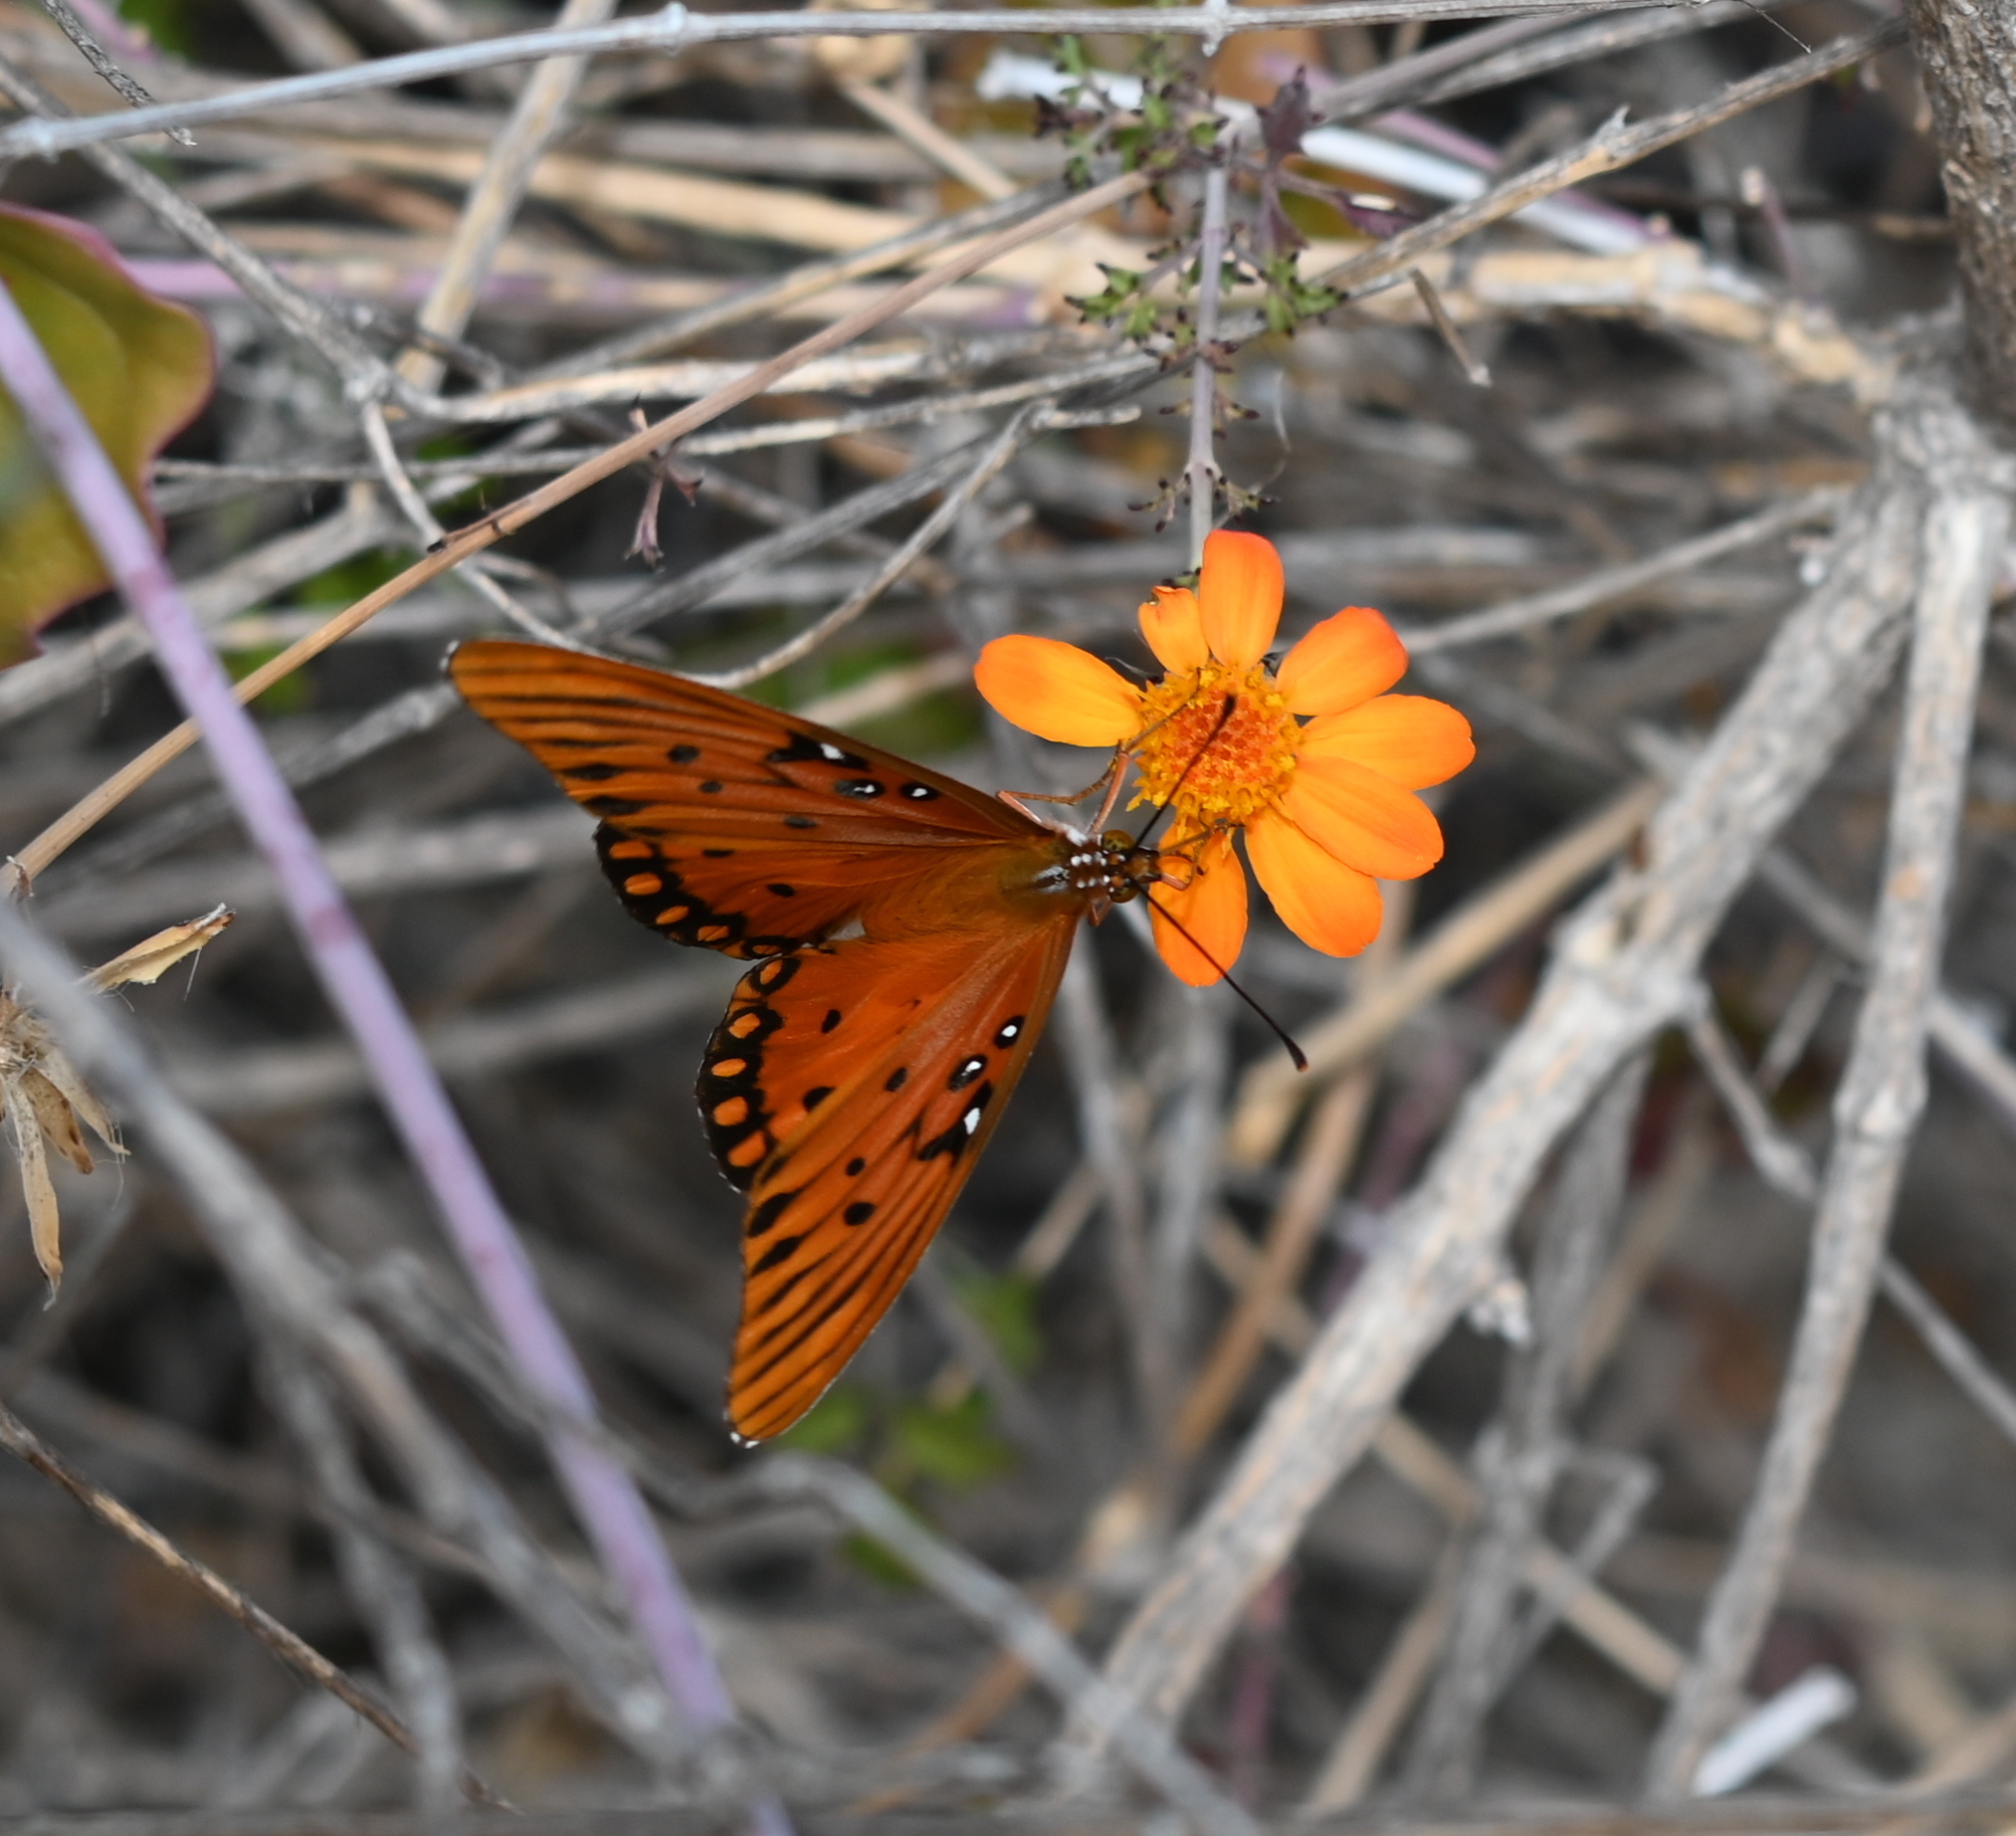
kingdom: Animalia
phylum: Arthropoda
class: Insecta
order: Lepidoptera
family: Nymphalidae
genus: Dione
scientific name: Dione vanillae
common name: Gulf fritillary
